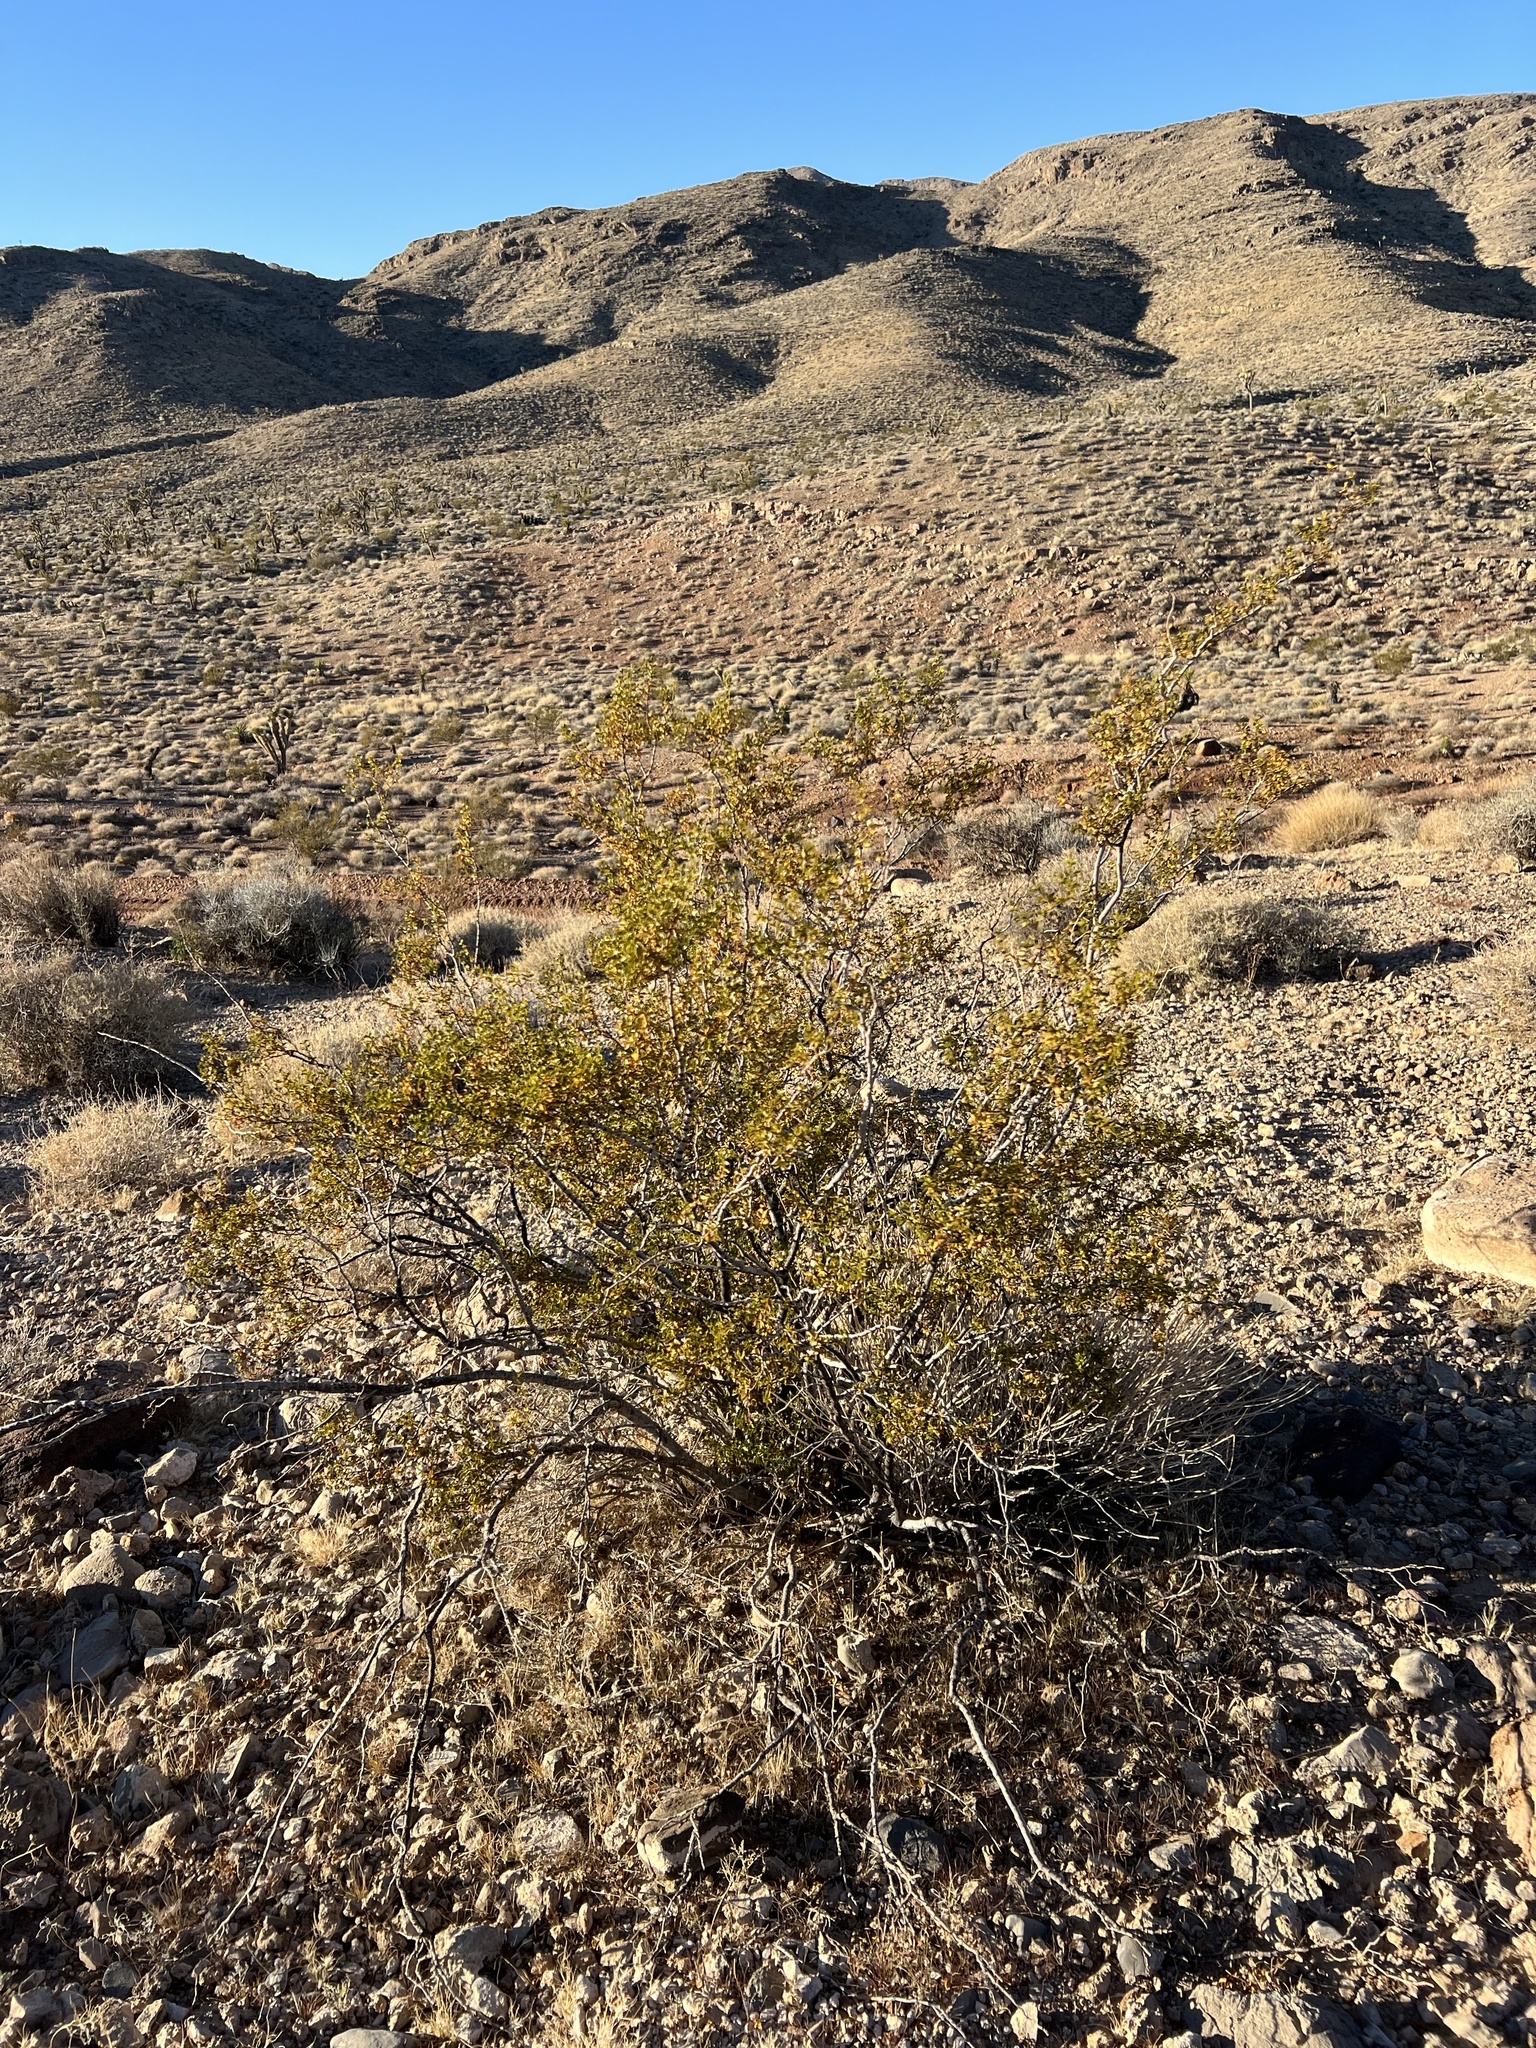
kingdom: Plantae
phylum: Tracheophyta
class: Magnoliopsida
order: Zygophyllales
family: Zygophyllaceae
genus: Larrea
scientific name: Larrea tridentata
